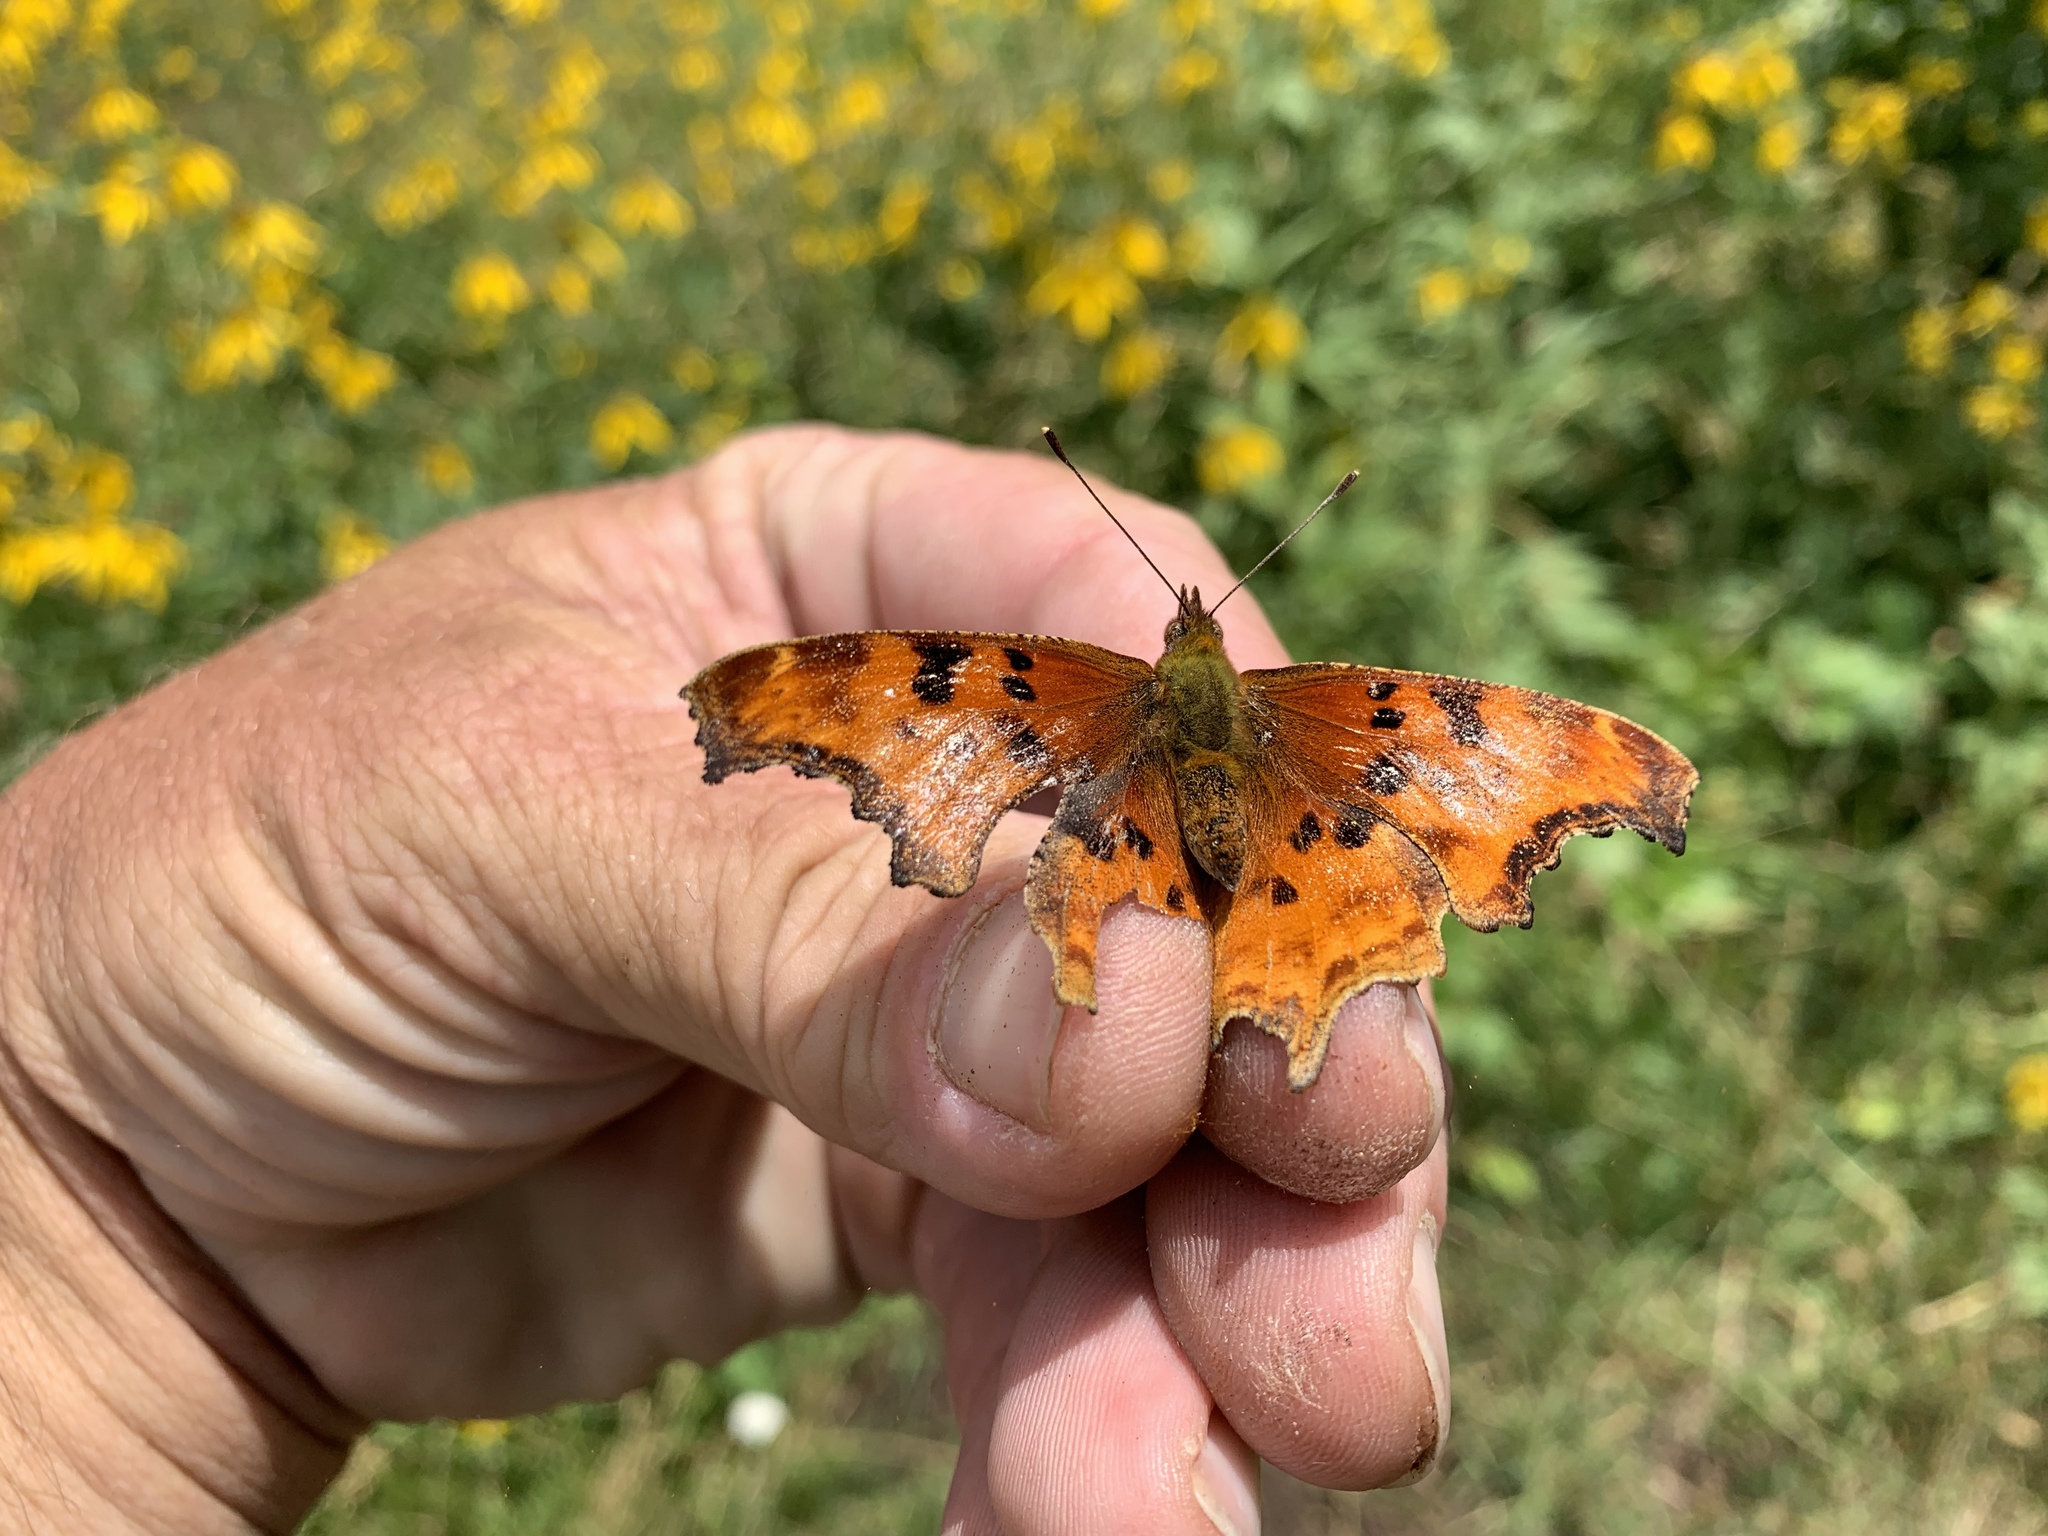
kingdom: Animalia
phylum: Arthropoda
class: Insecta
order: Lepidoptera
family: Nymphalidae
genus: Polygonia
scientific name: Polygonia satyrus
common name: Satyr angle wing
